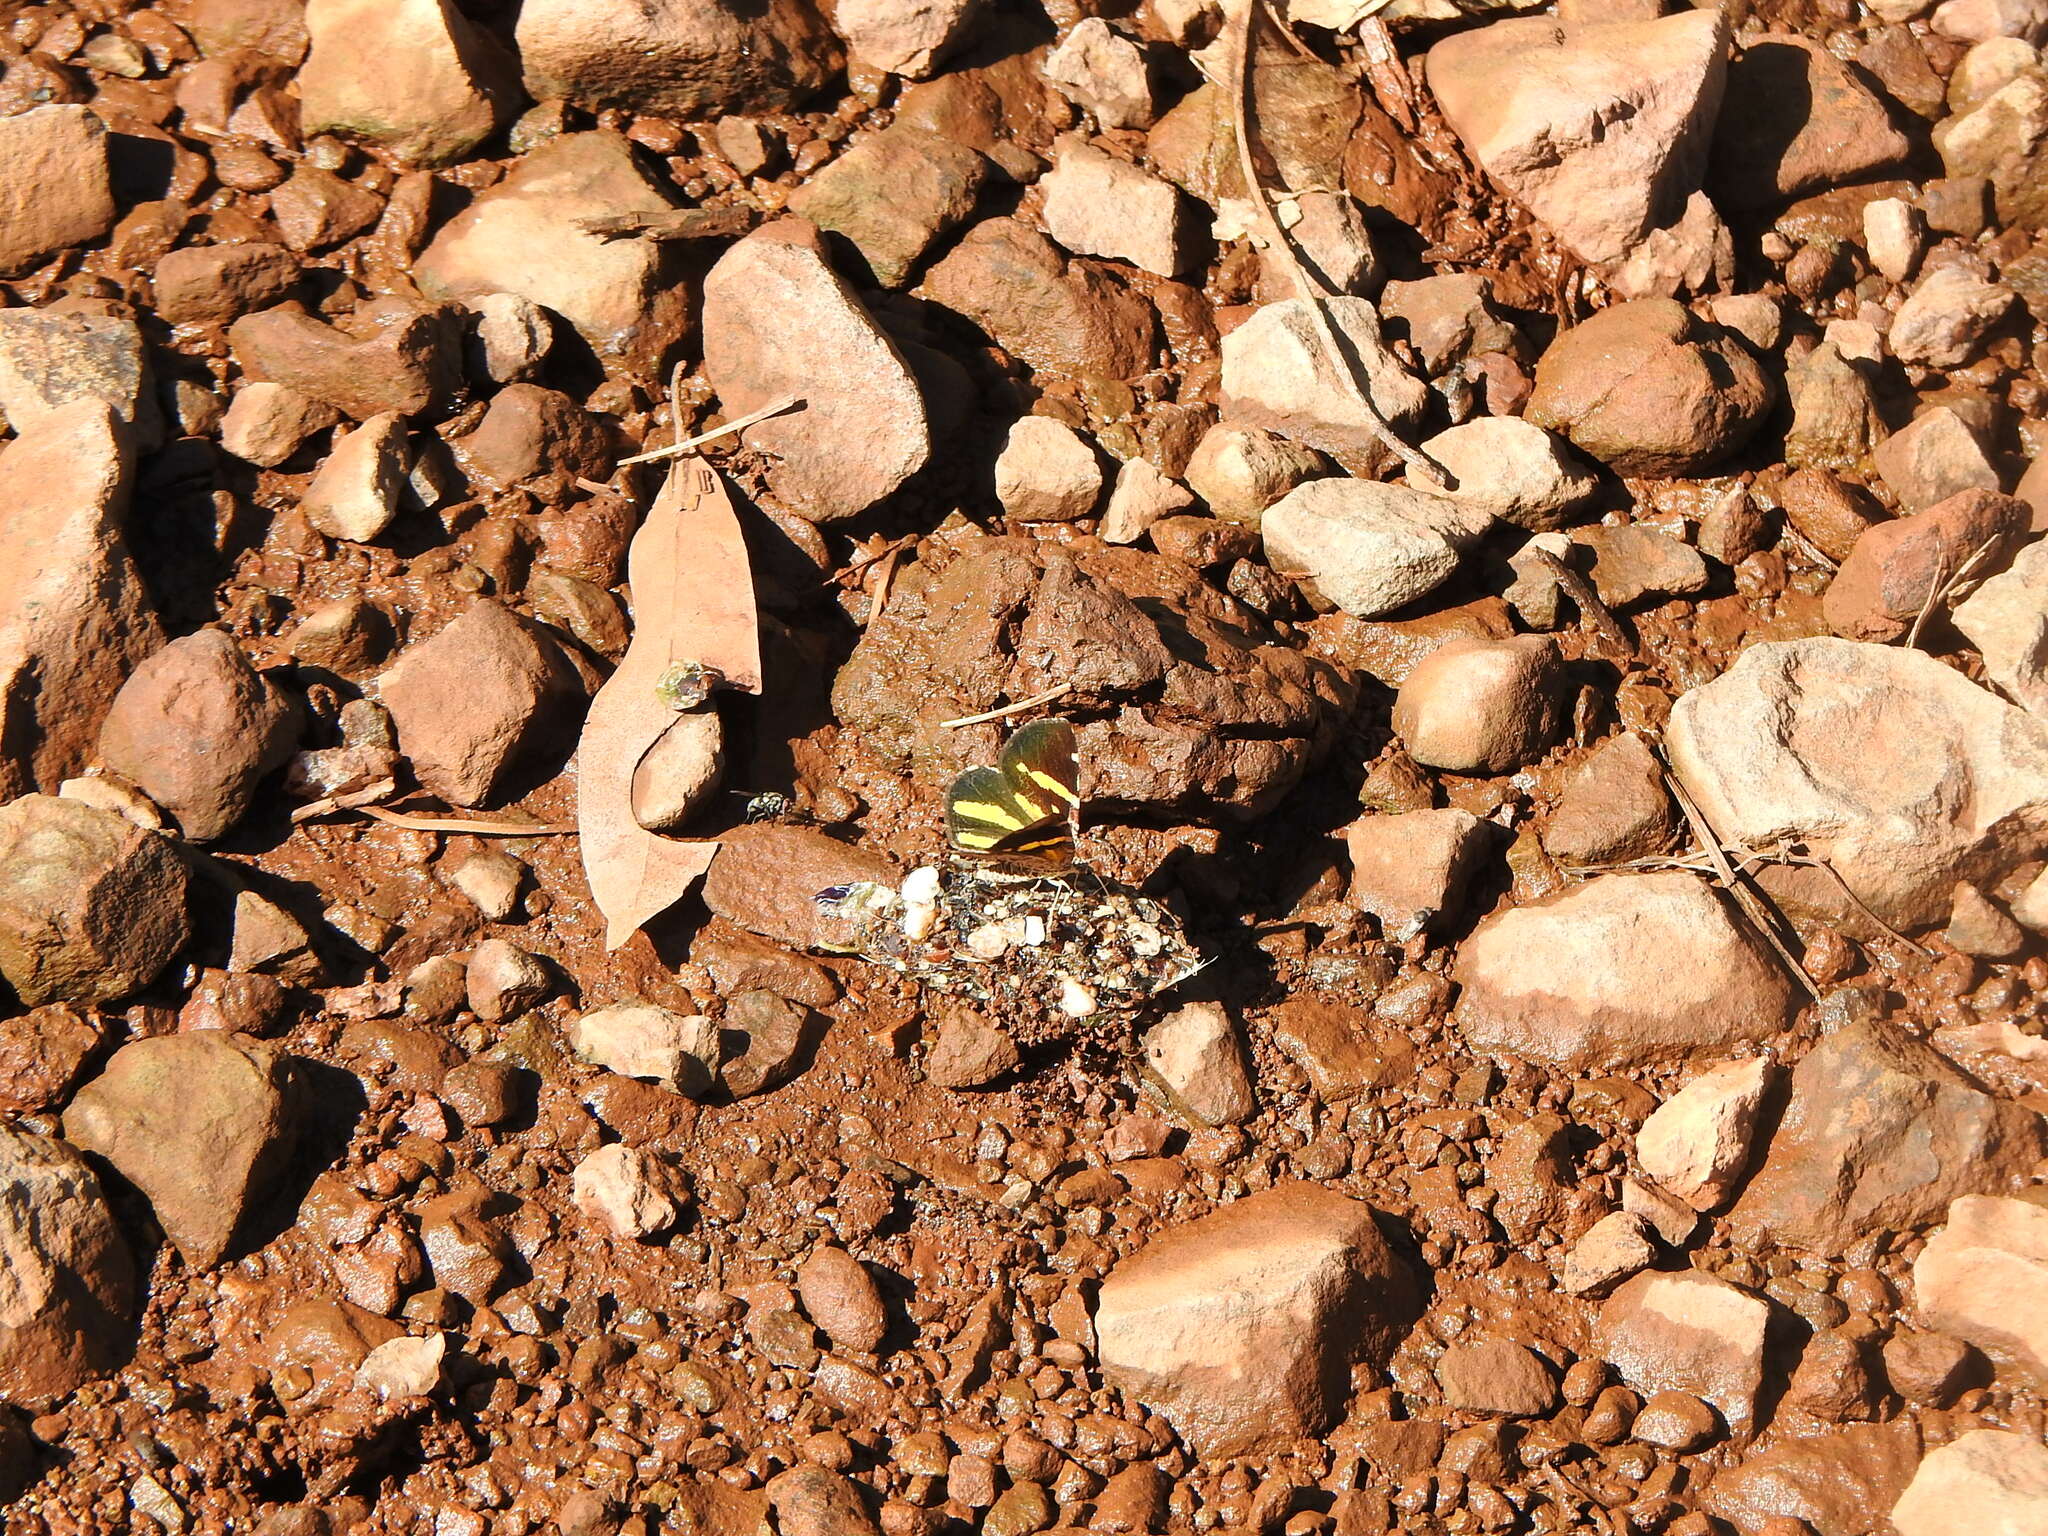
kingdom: Animalia
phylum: Arthropoda
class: Insecta
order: Lepidoptera
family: Geometridae
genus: Heterusia
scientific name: Heterusia quadruplicaria
